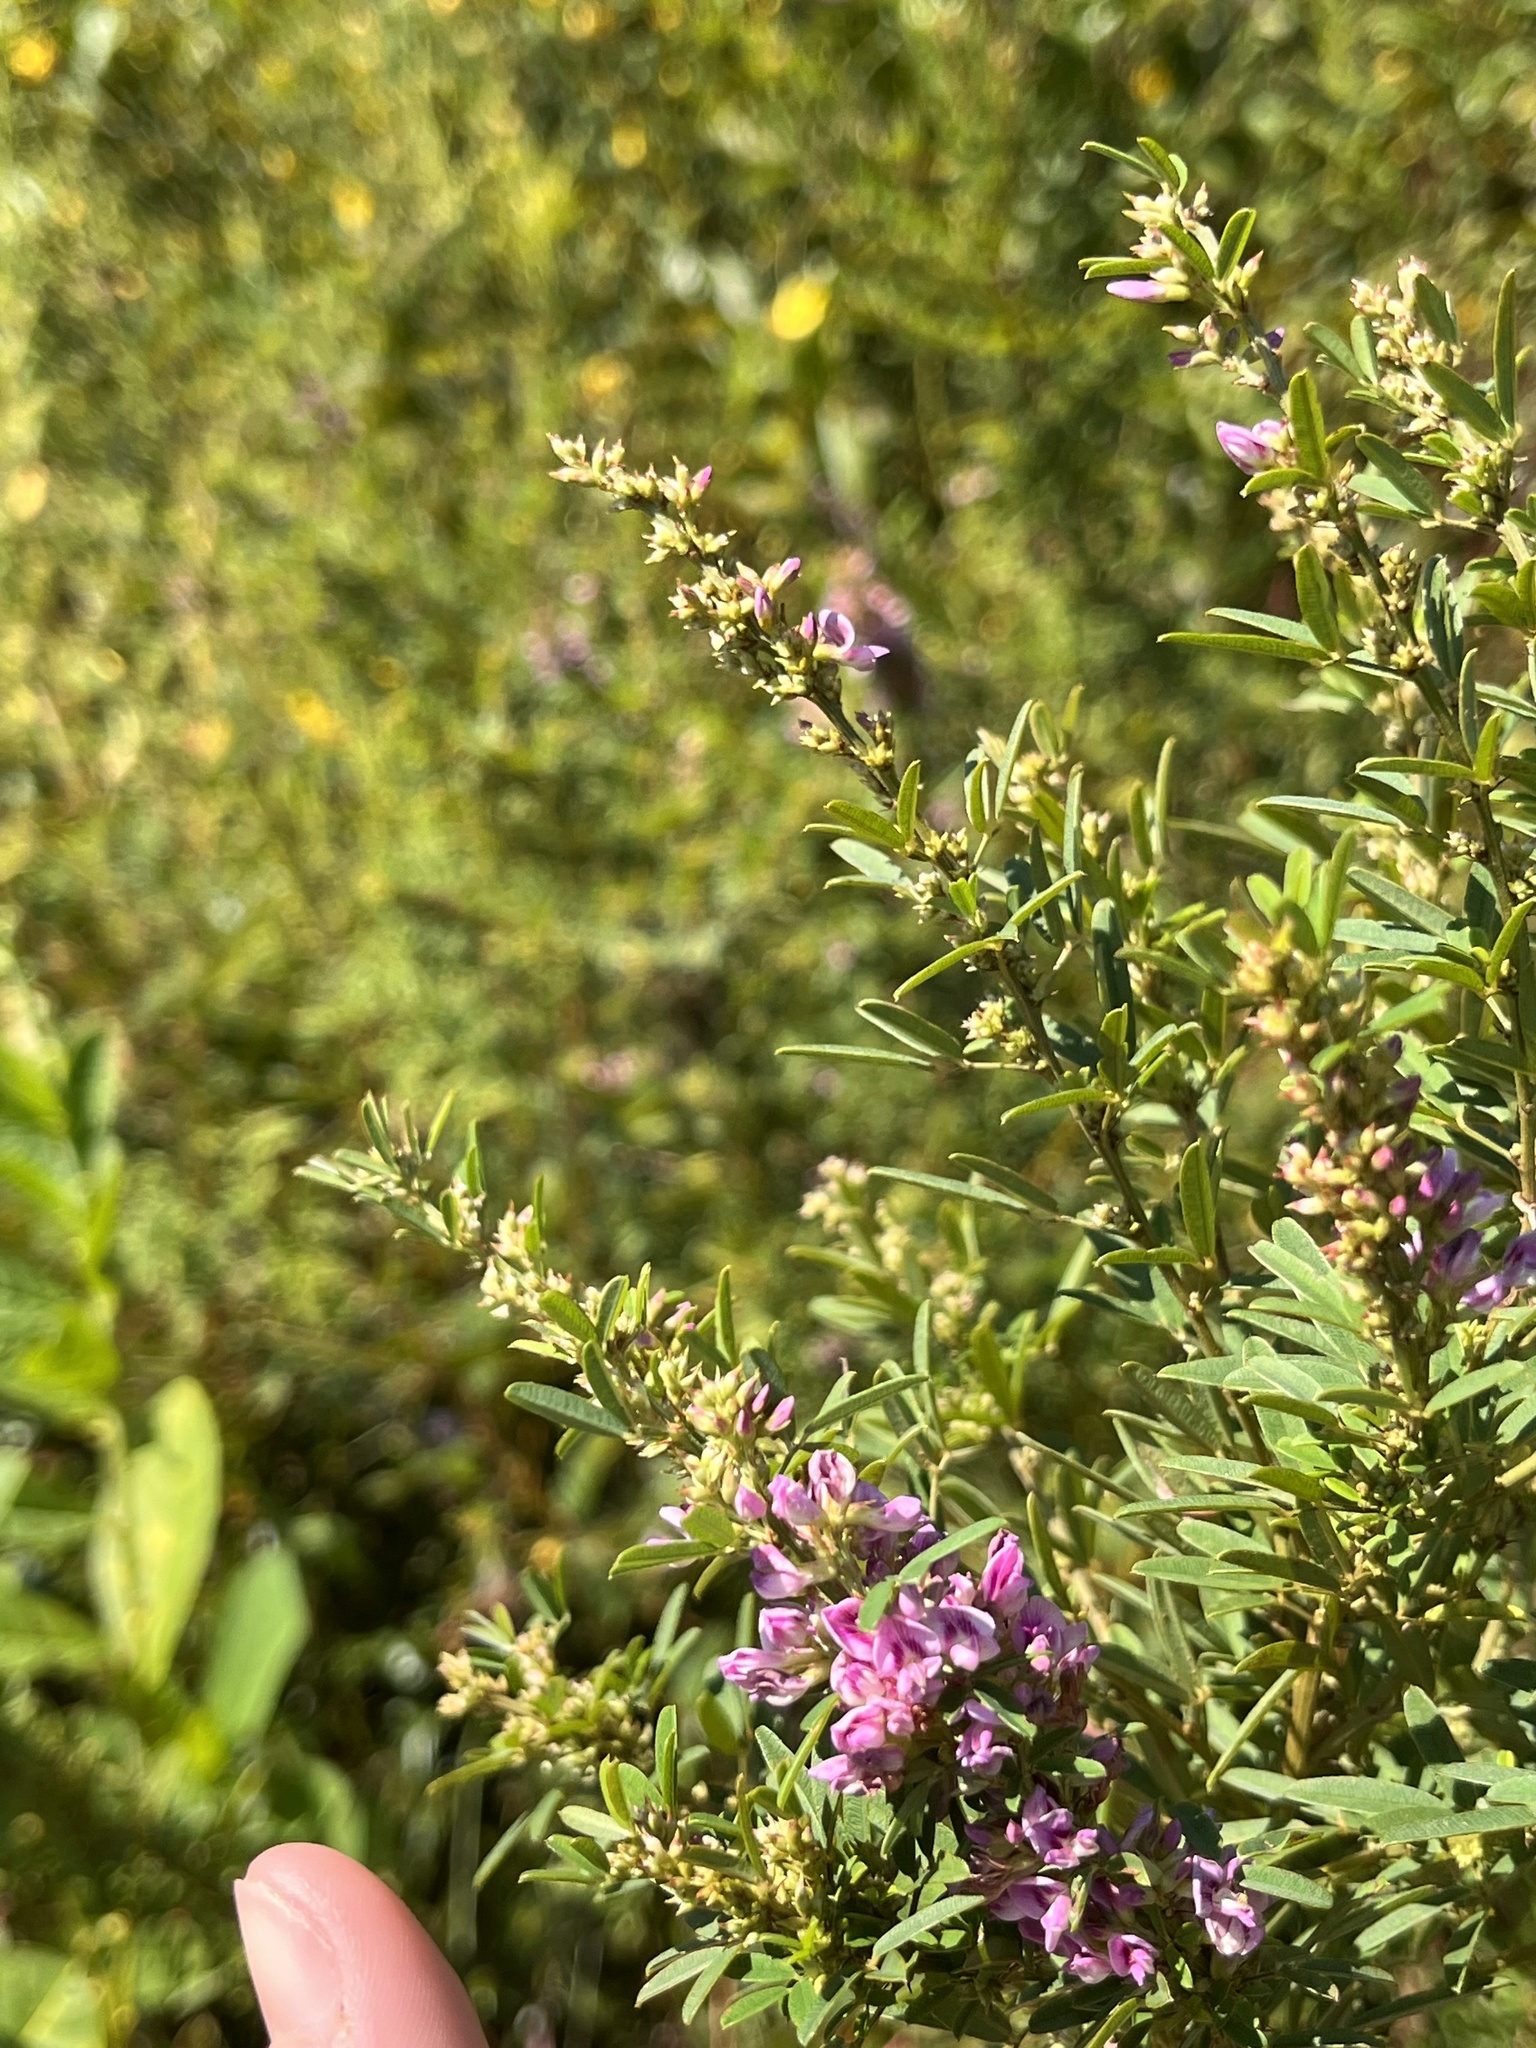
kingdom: Plantae
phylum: Tracheophyta
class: Magnoliopsida
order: Fabales
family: Fabaceae
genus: Lespedeza
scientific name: Lespedeza virginica
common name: Slender bush-clover
